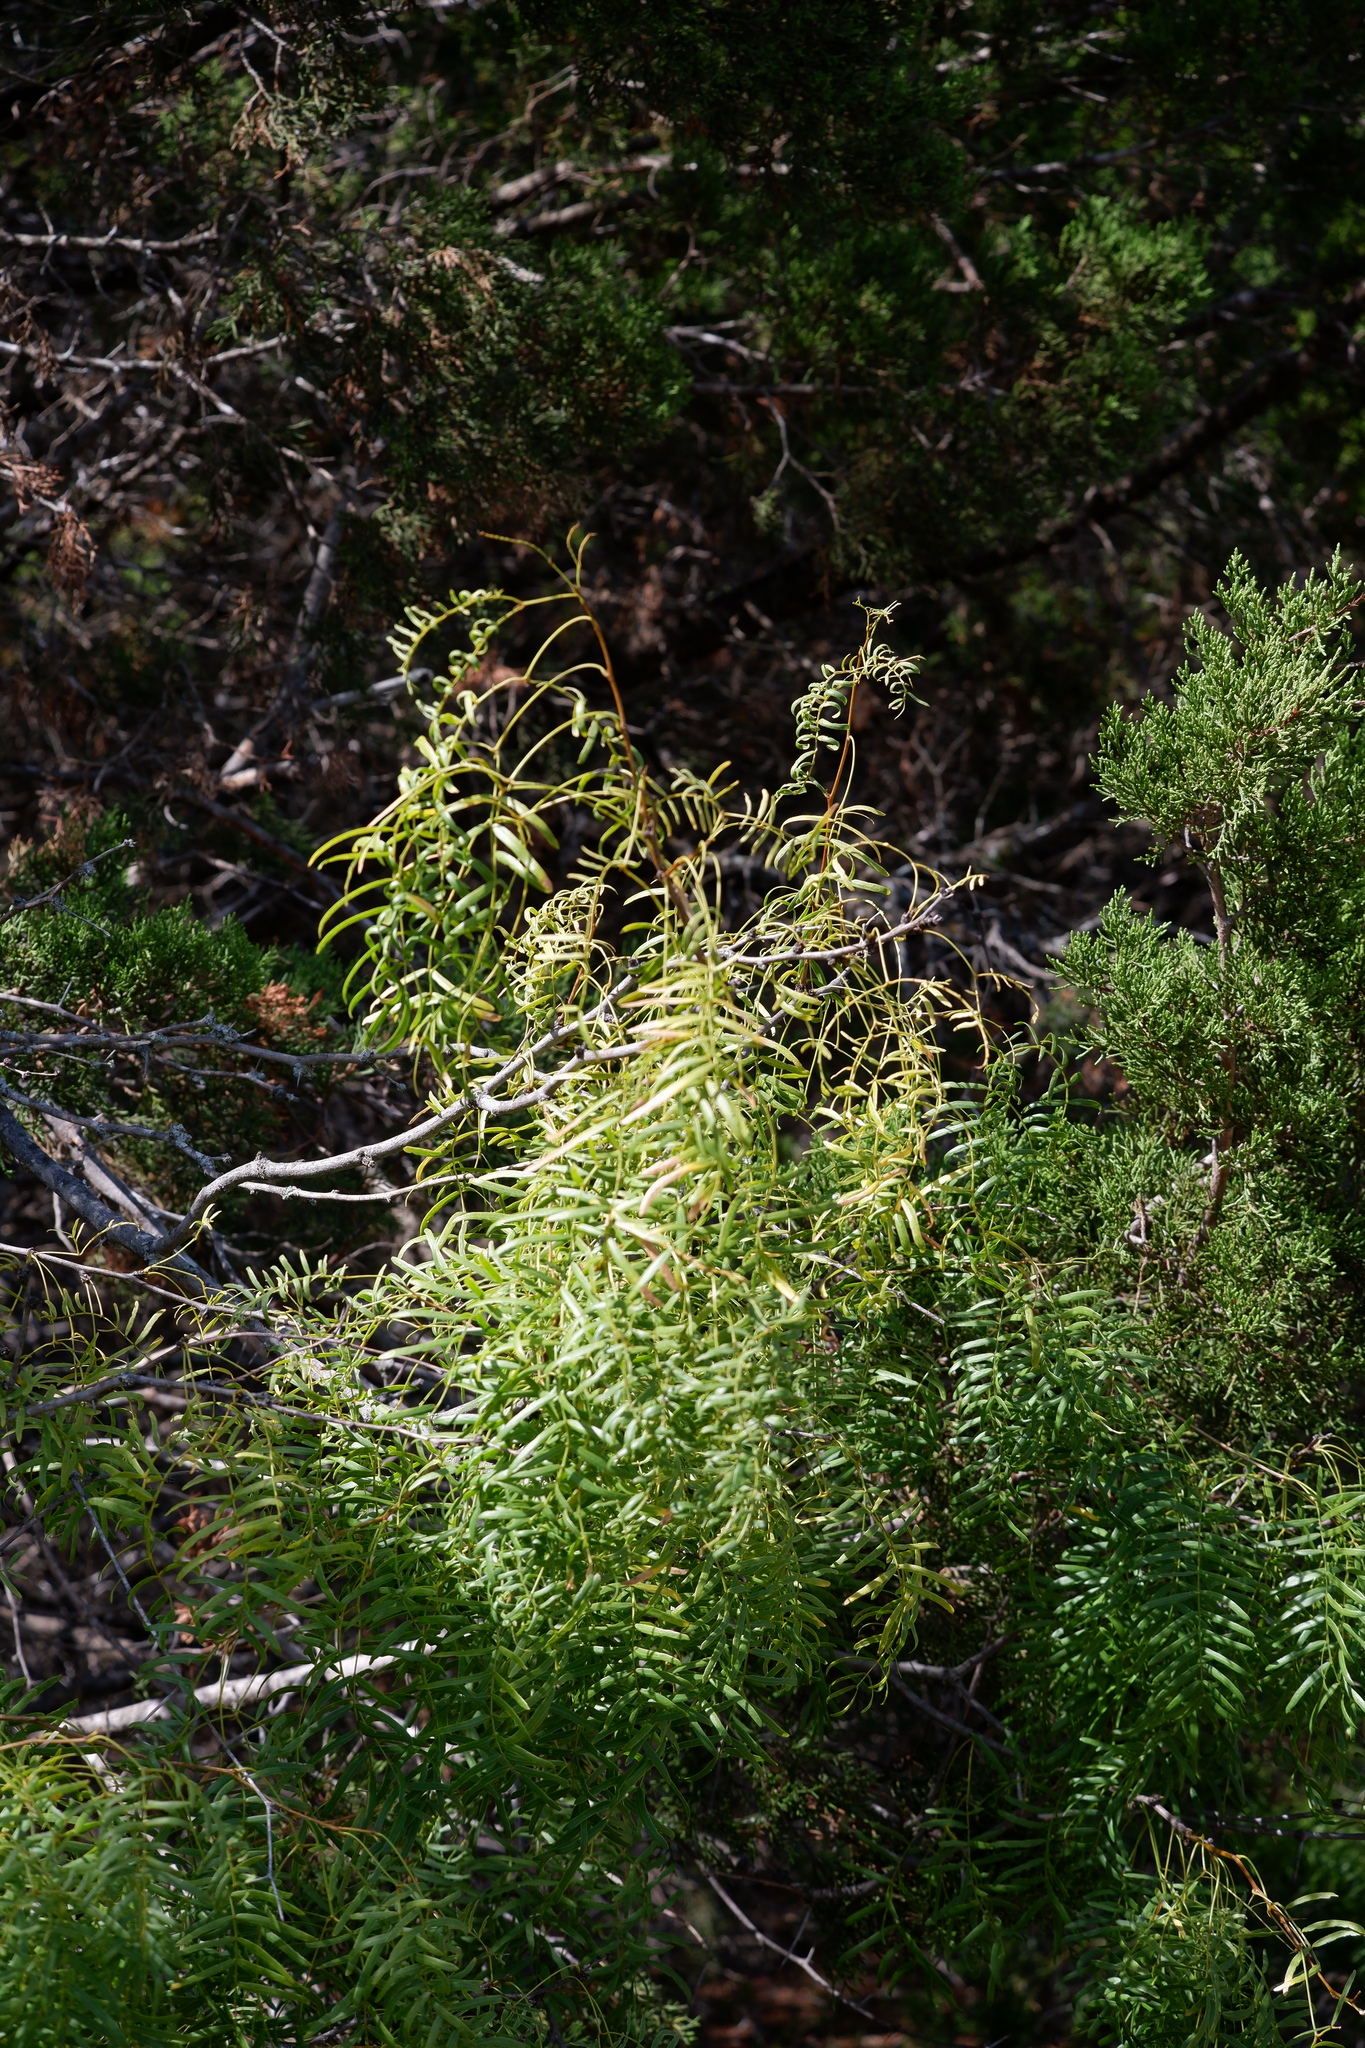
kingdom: Plantae
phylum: Tracheophyta
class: Magnoliopsida
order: Fabales
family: Fabaceae
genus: Prosopis
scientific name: Prosopis glandulosa
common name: Honey mesquite
